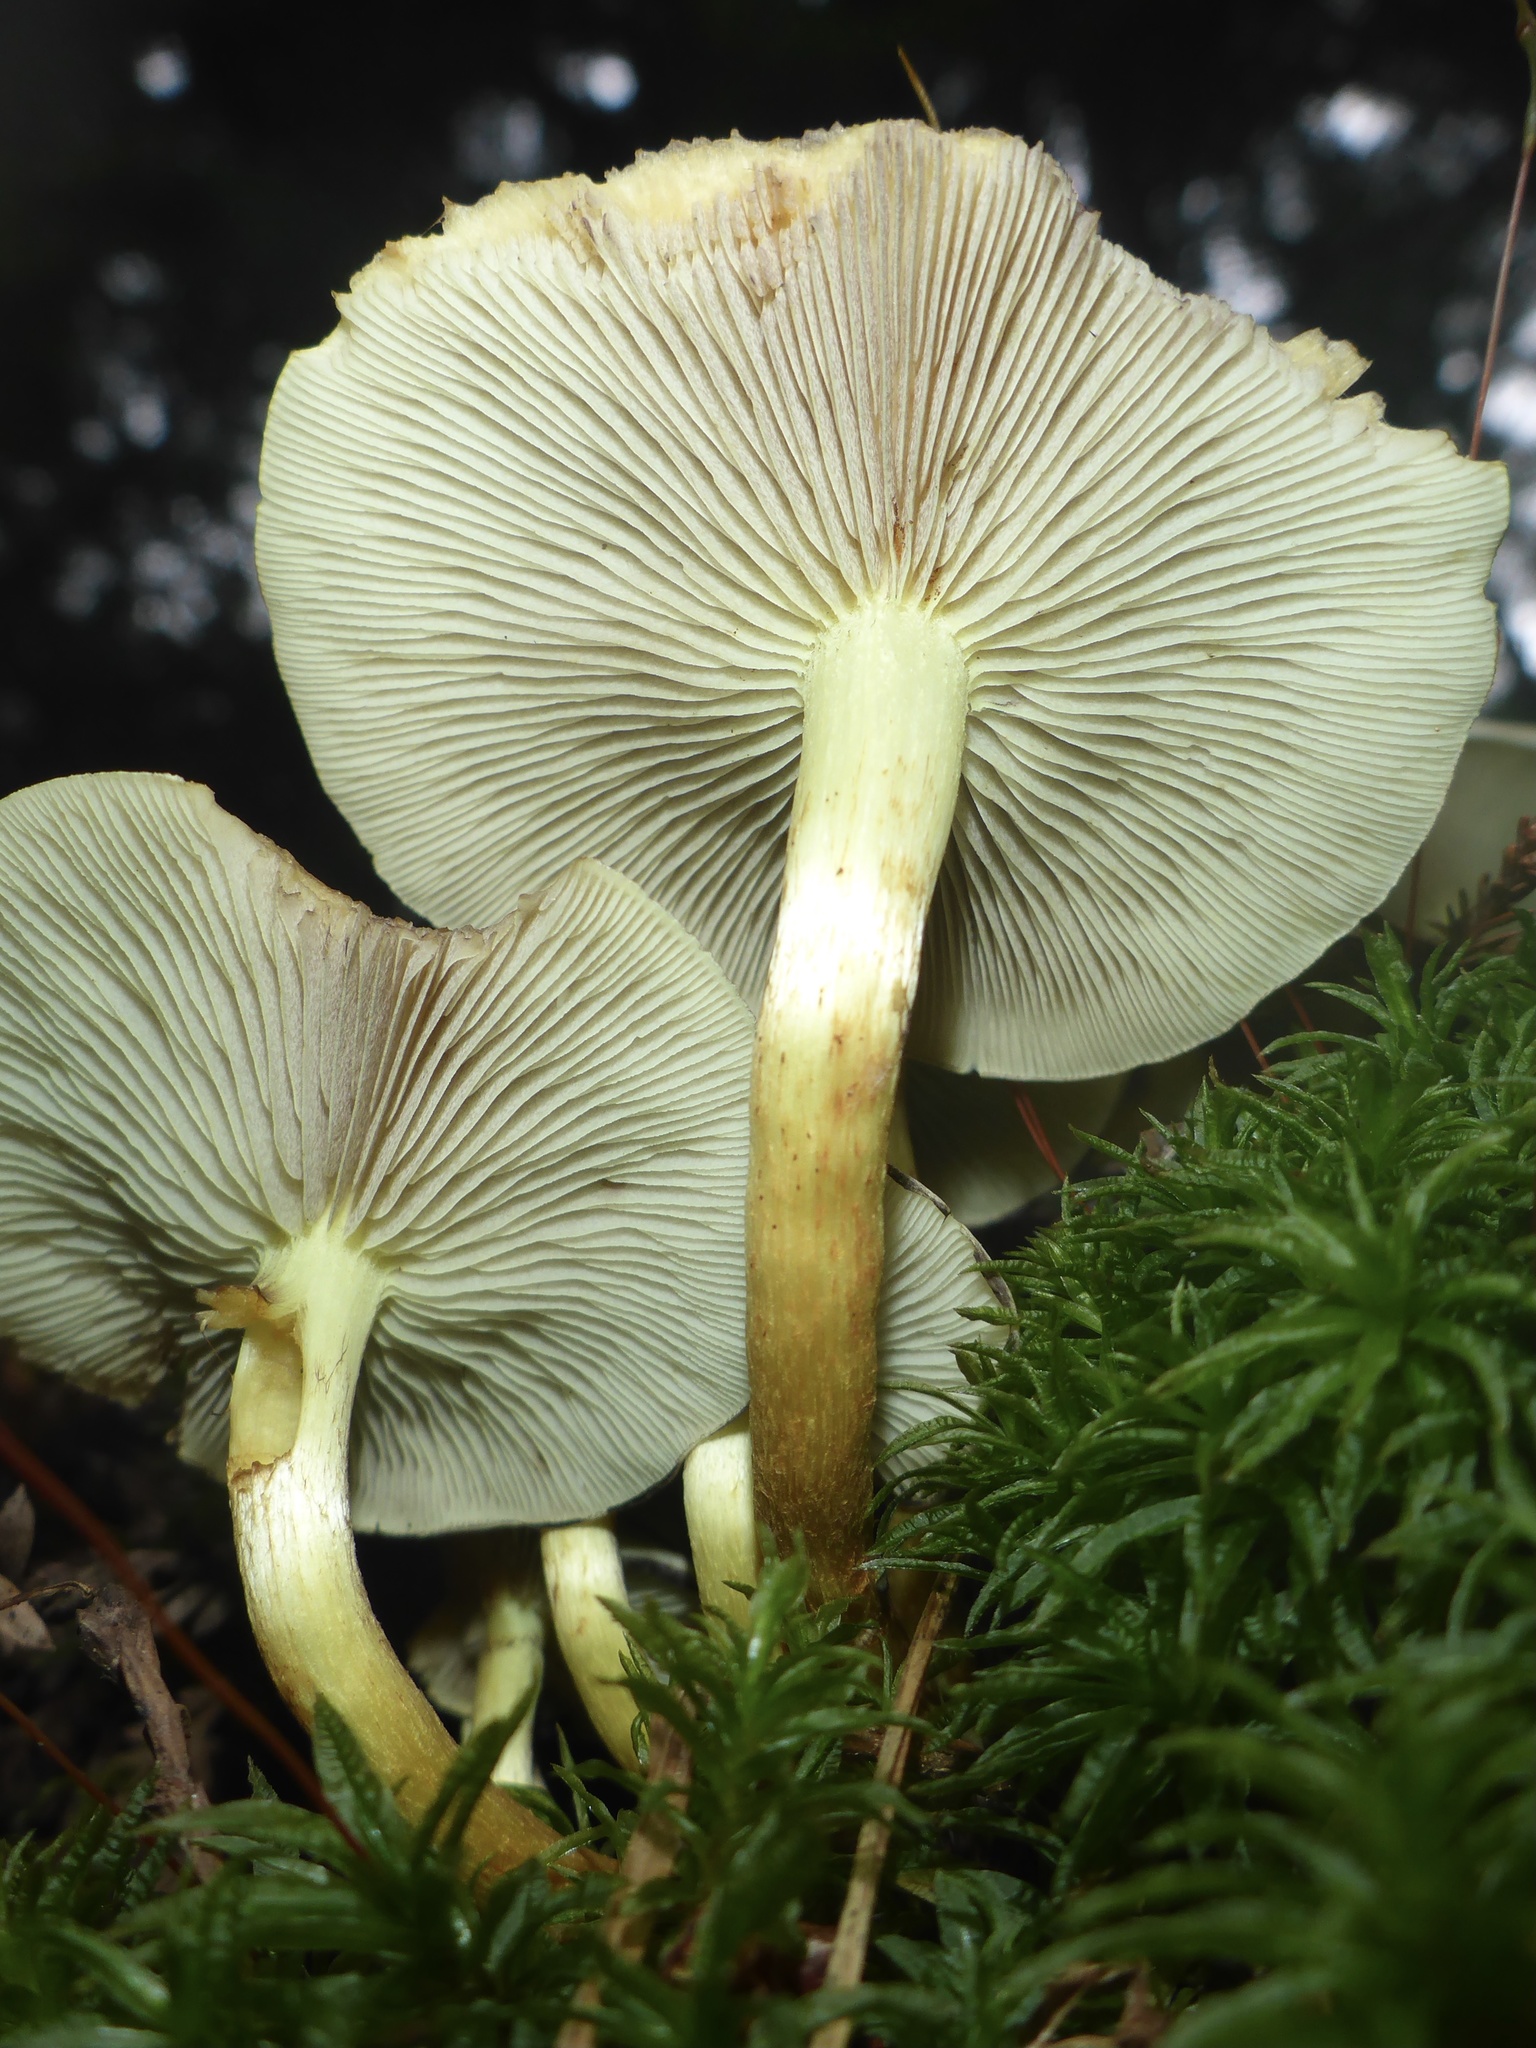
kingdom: Fungi
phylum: Basidiomycota
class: Agaricomycetes
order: Agaricales
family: Strophariaceae
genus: Hypholoma
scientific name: Hypholoma fasciculare
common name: Sulphur tuft
